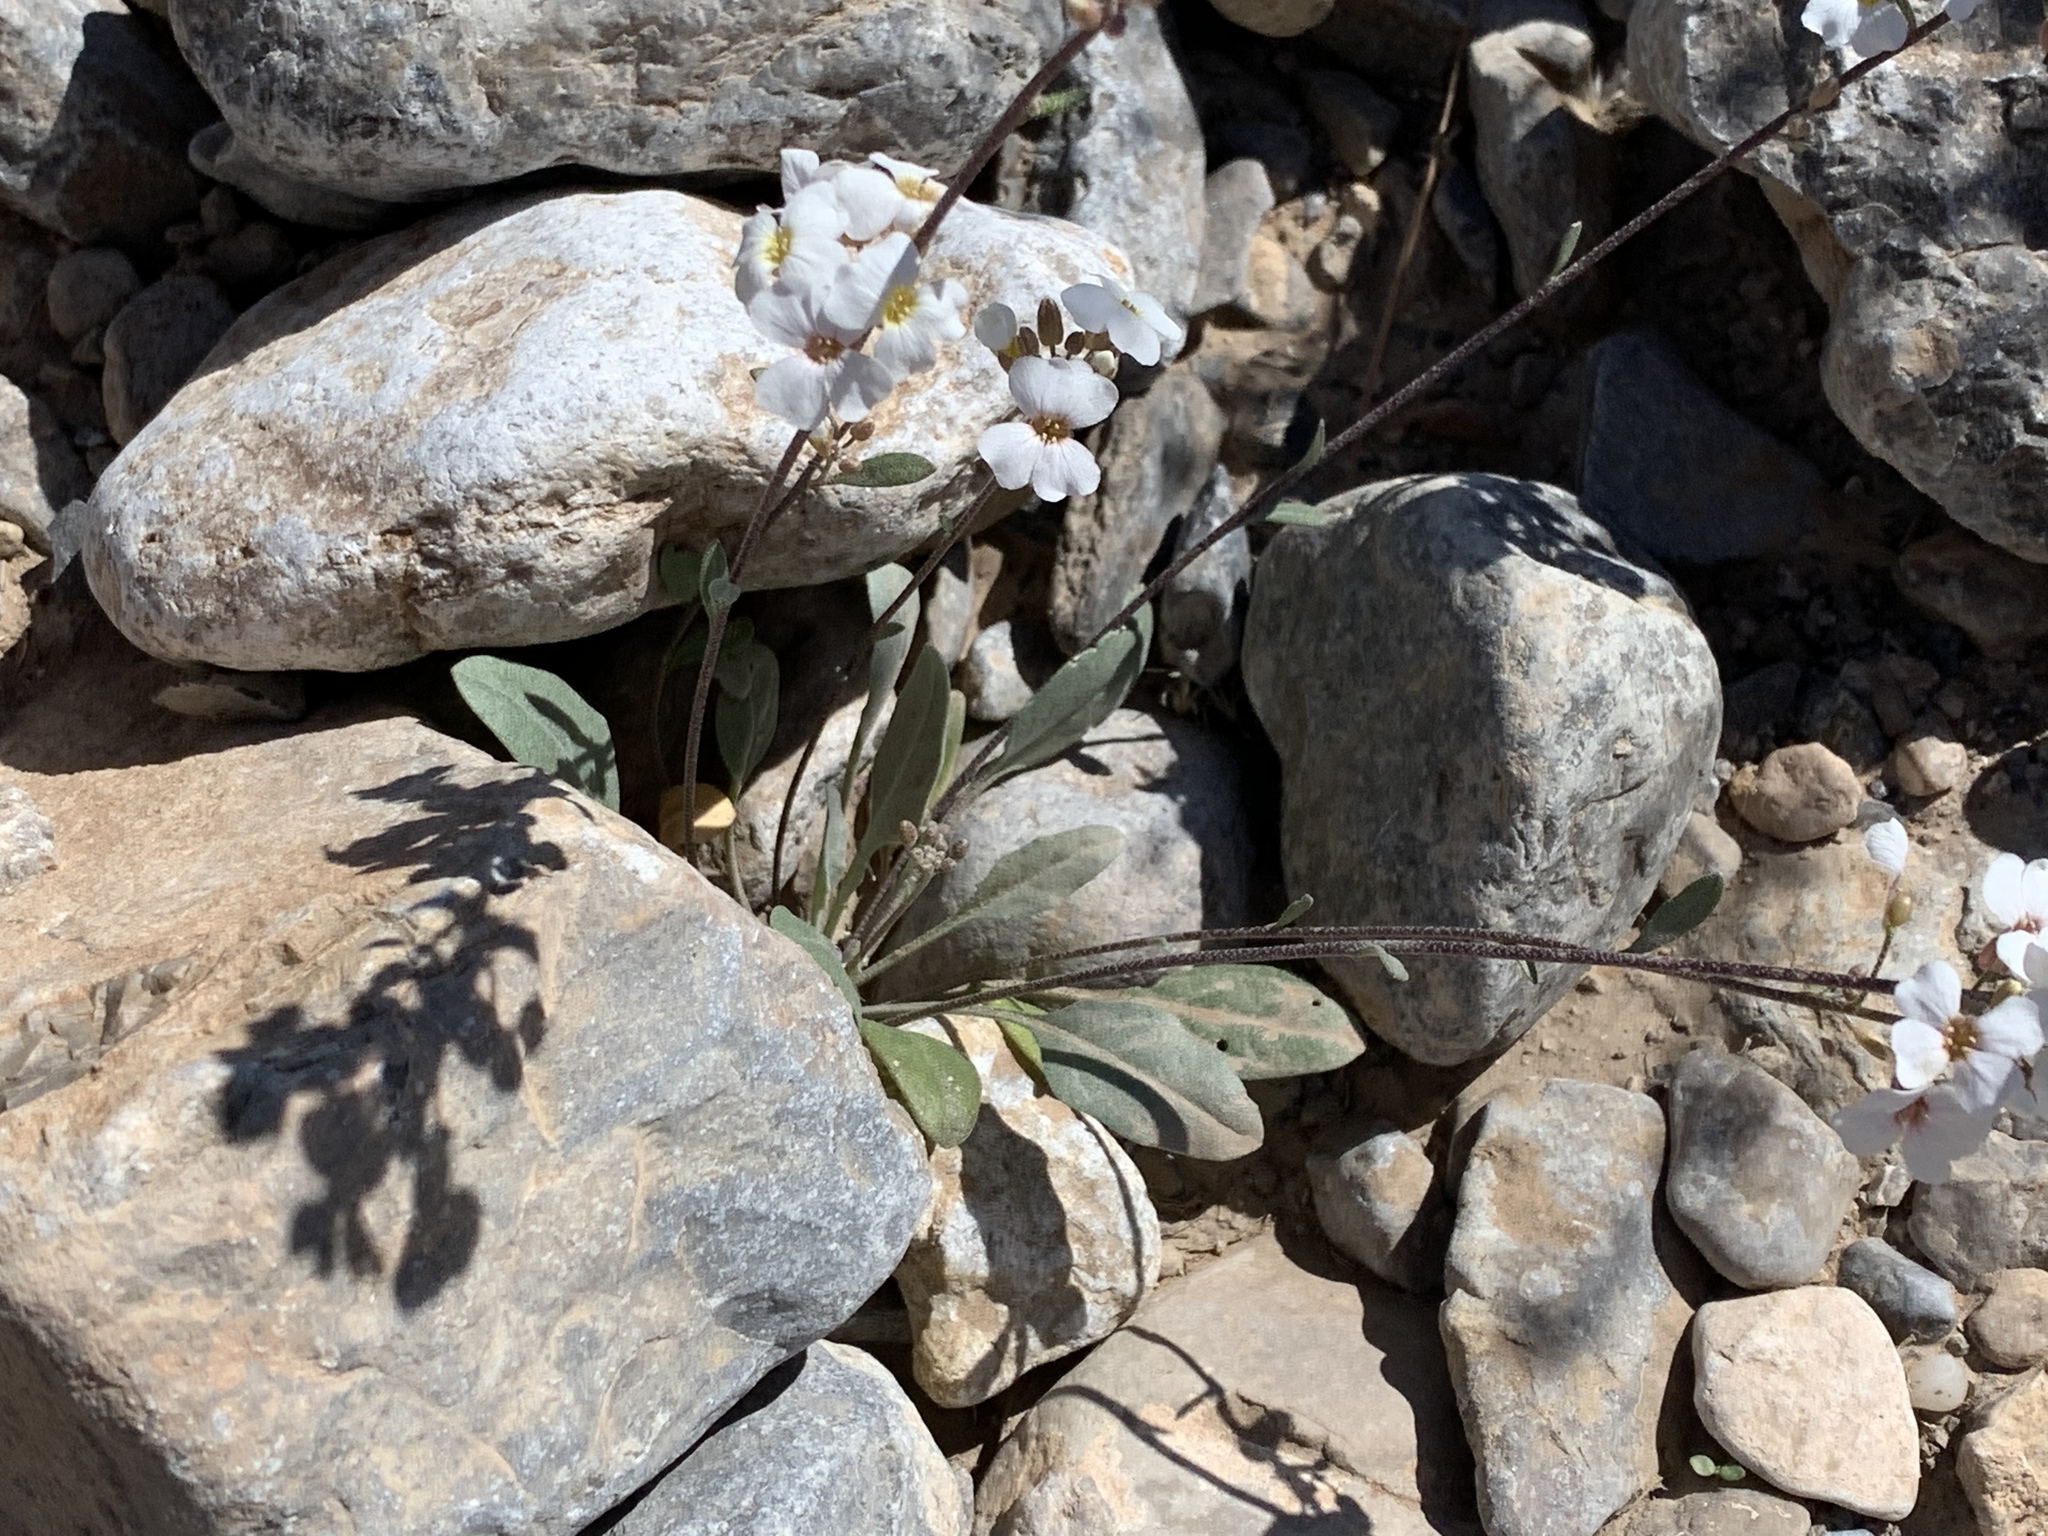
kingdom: Plantae
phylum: Tracheophyta
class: Magnoliopsida
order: Brassicales
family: Brassicaceae
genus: Physaria
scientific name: Physaria purpurea
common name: Rose bladderpod
